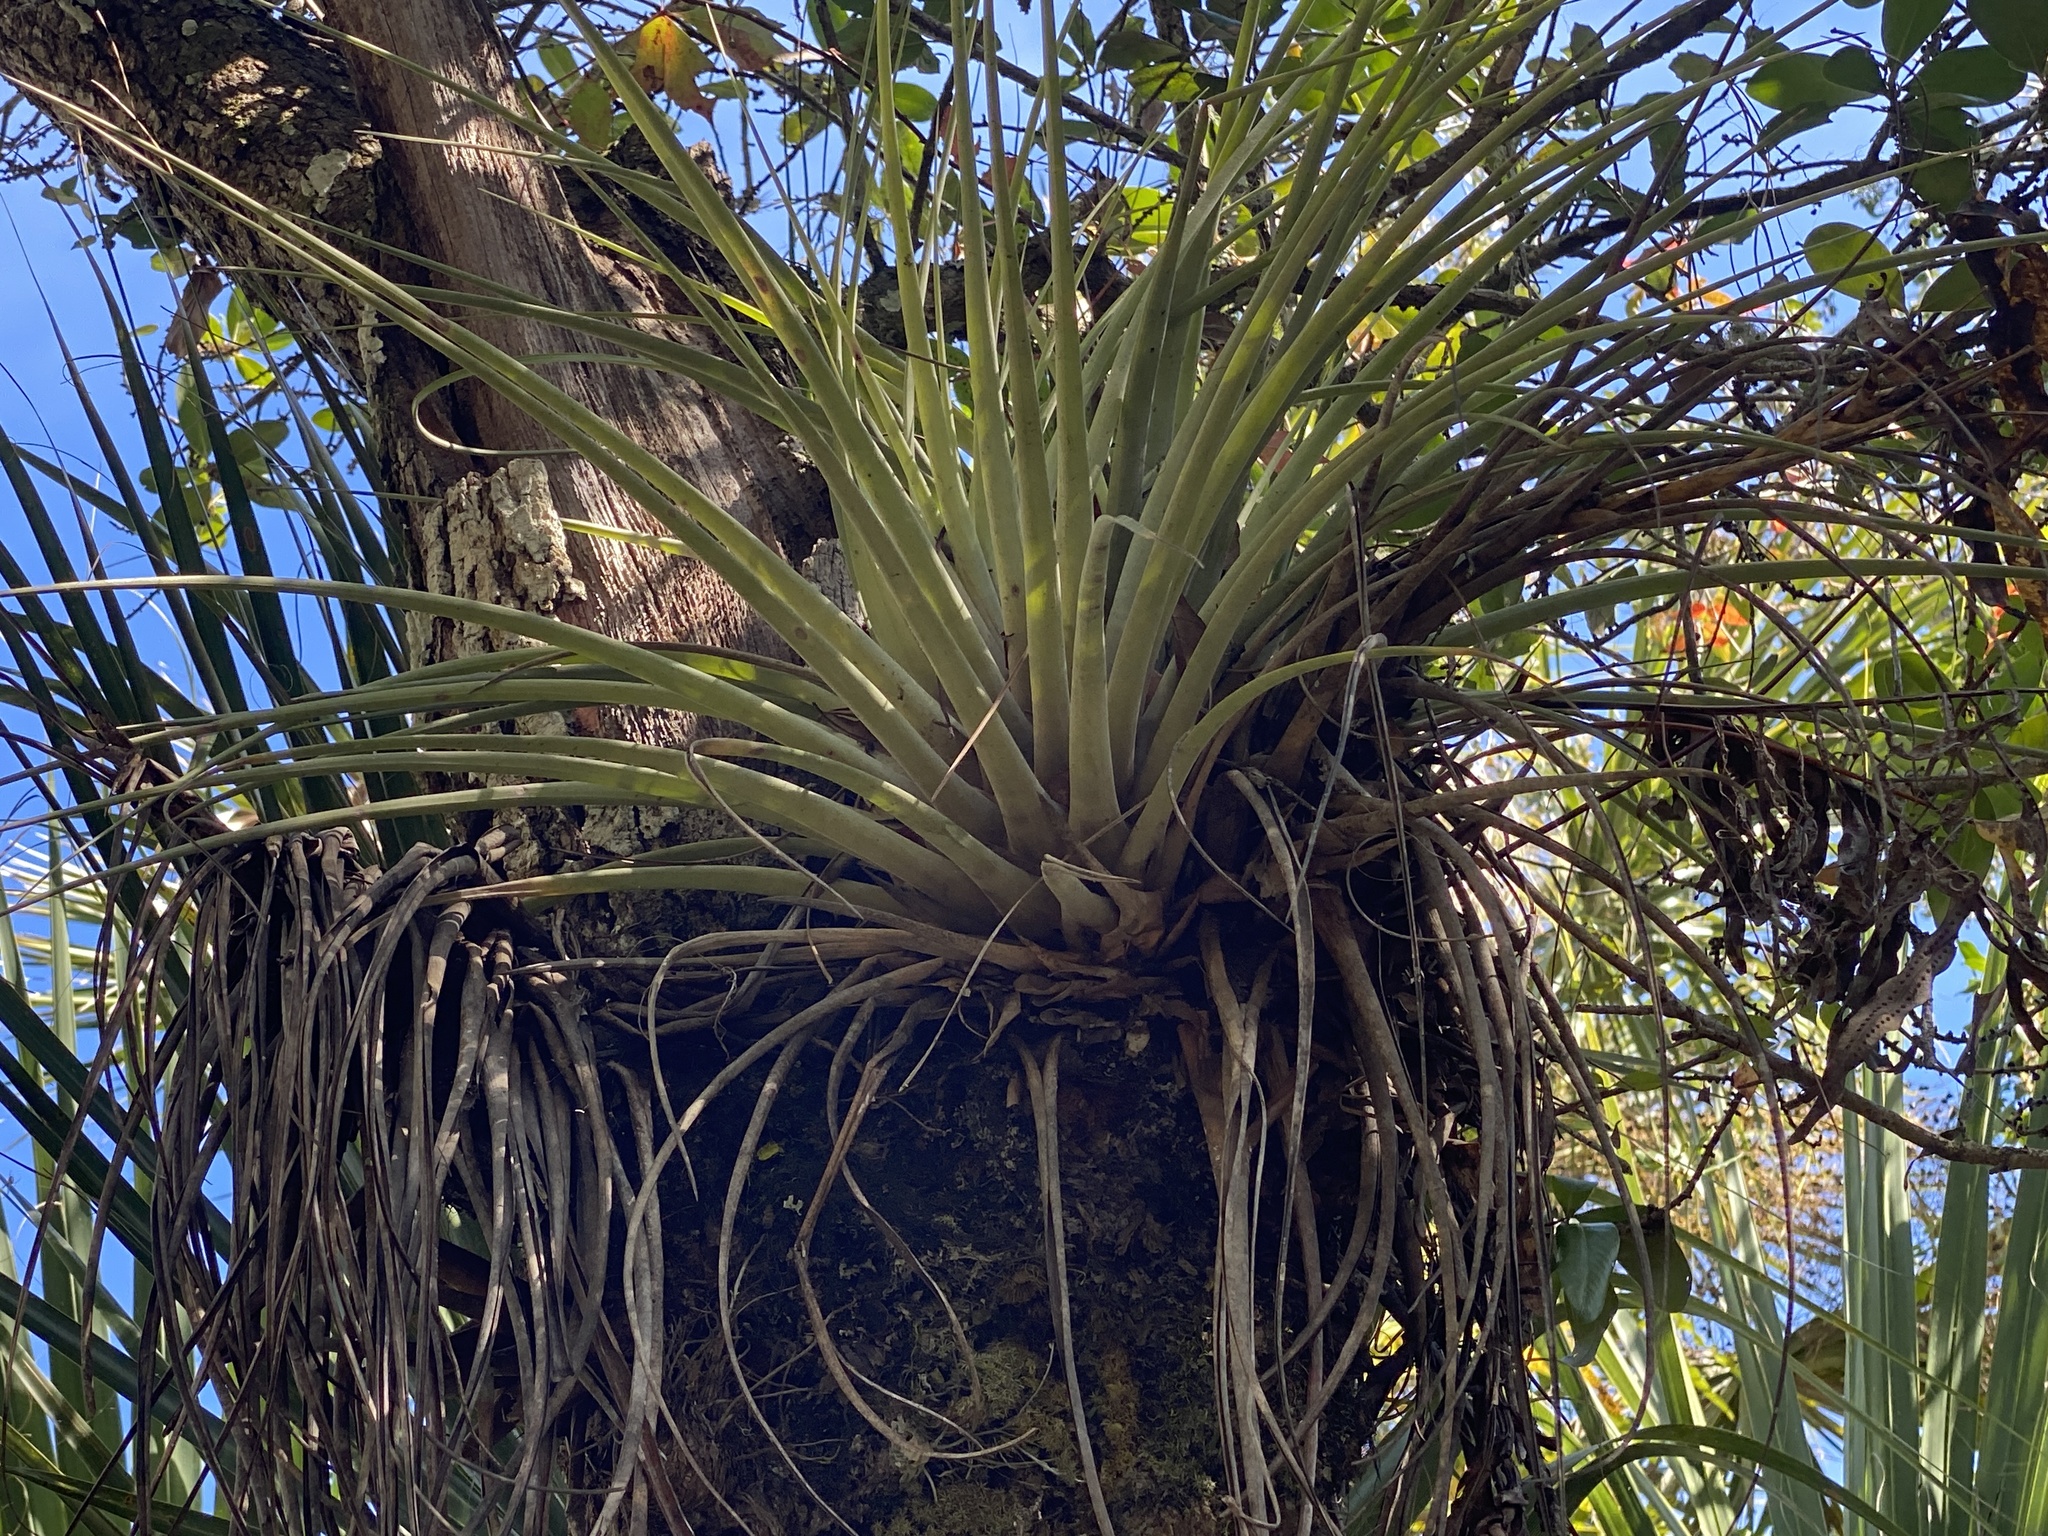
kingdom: Plantae
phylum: Tracheophyta
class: Liliopsida
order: Poales
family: Bromeliaceae
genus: Tillandsia
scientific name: Tillandsia fasciculata
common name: Giant airplant
